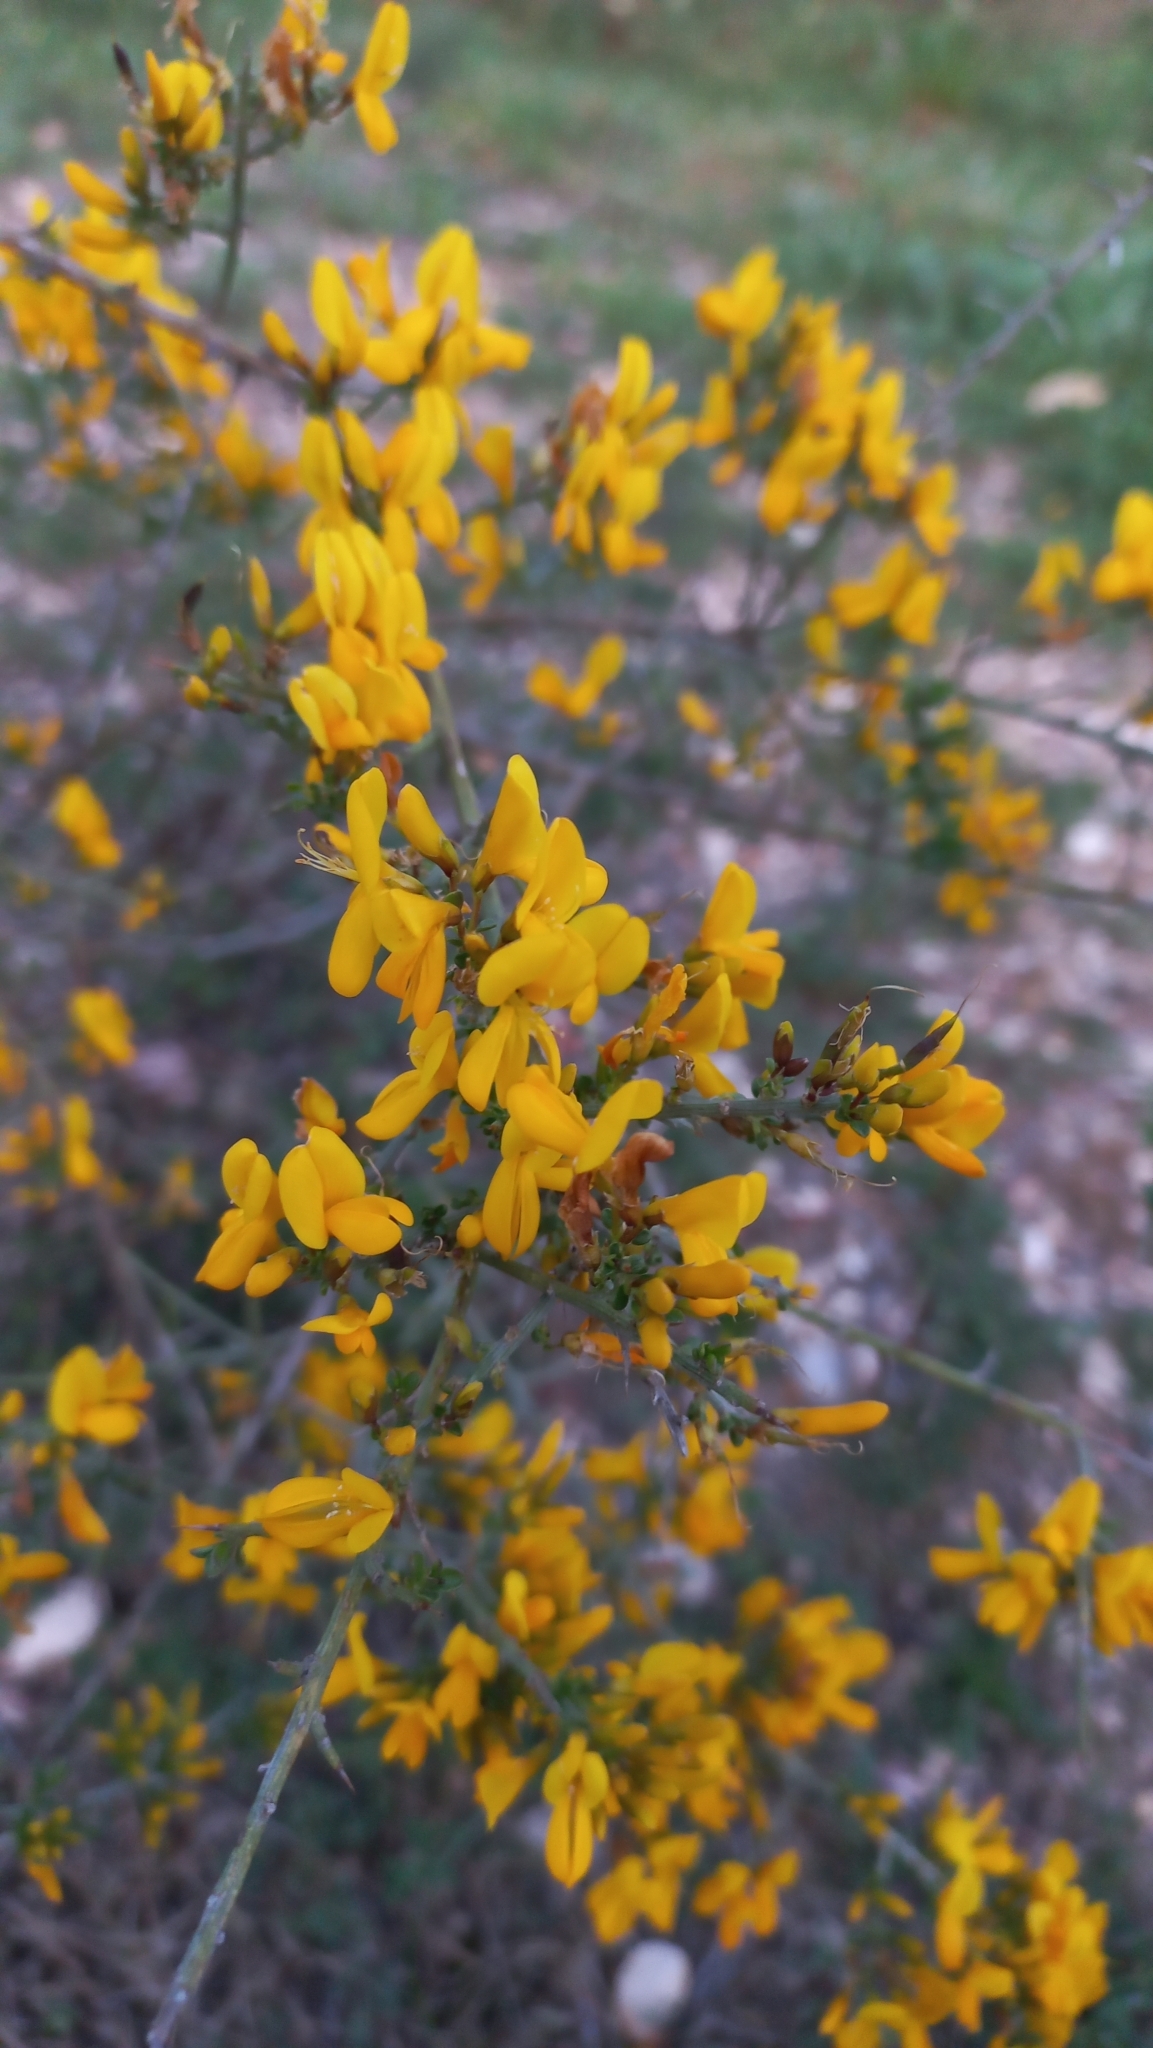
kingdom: Plantae
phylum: Tracheophyta
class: Magnoliopsida
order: Fabales
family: Fabaceae
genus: Genista
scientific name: Genista scorpius
